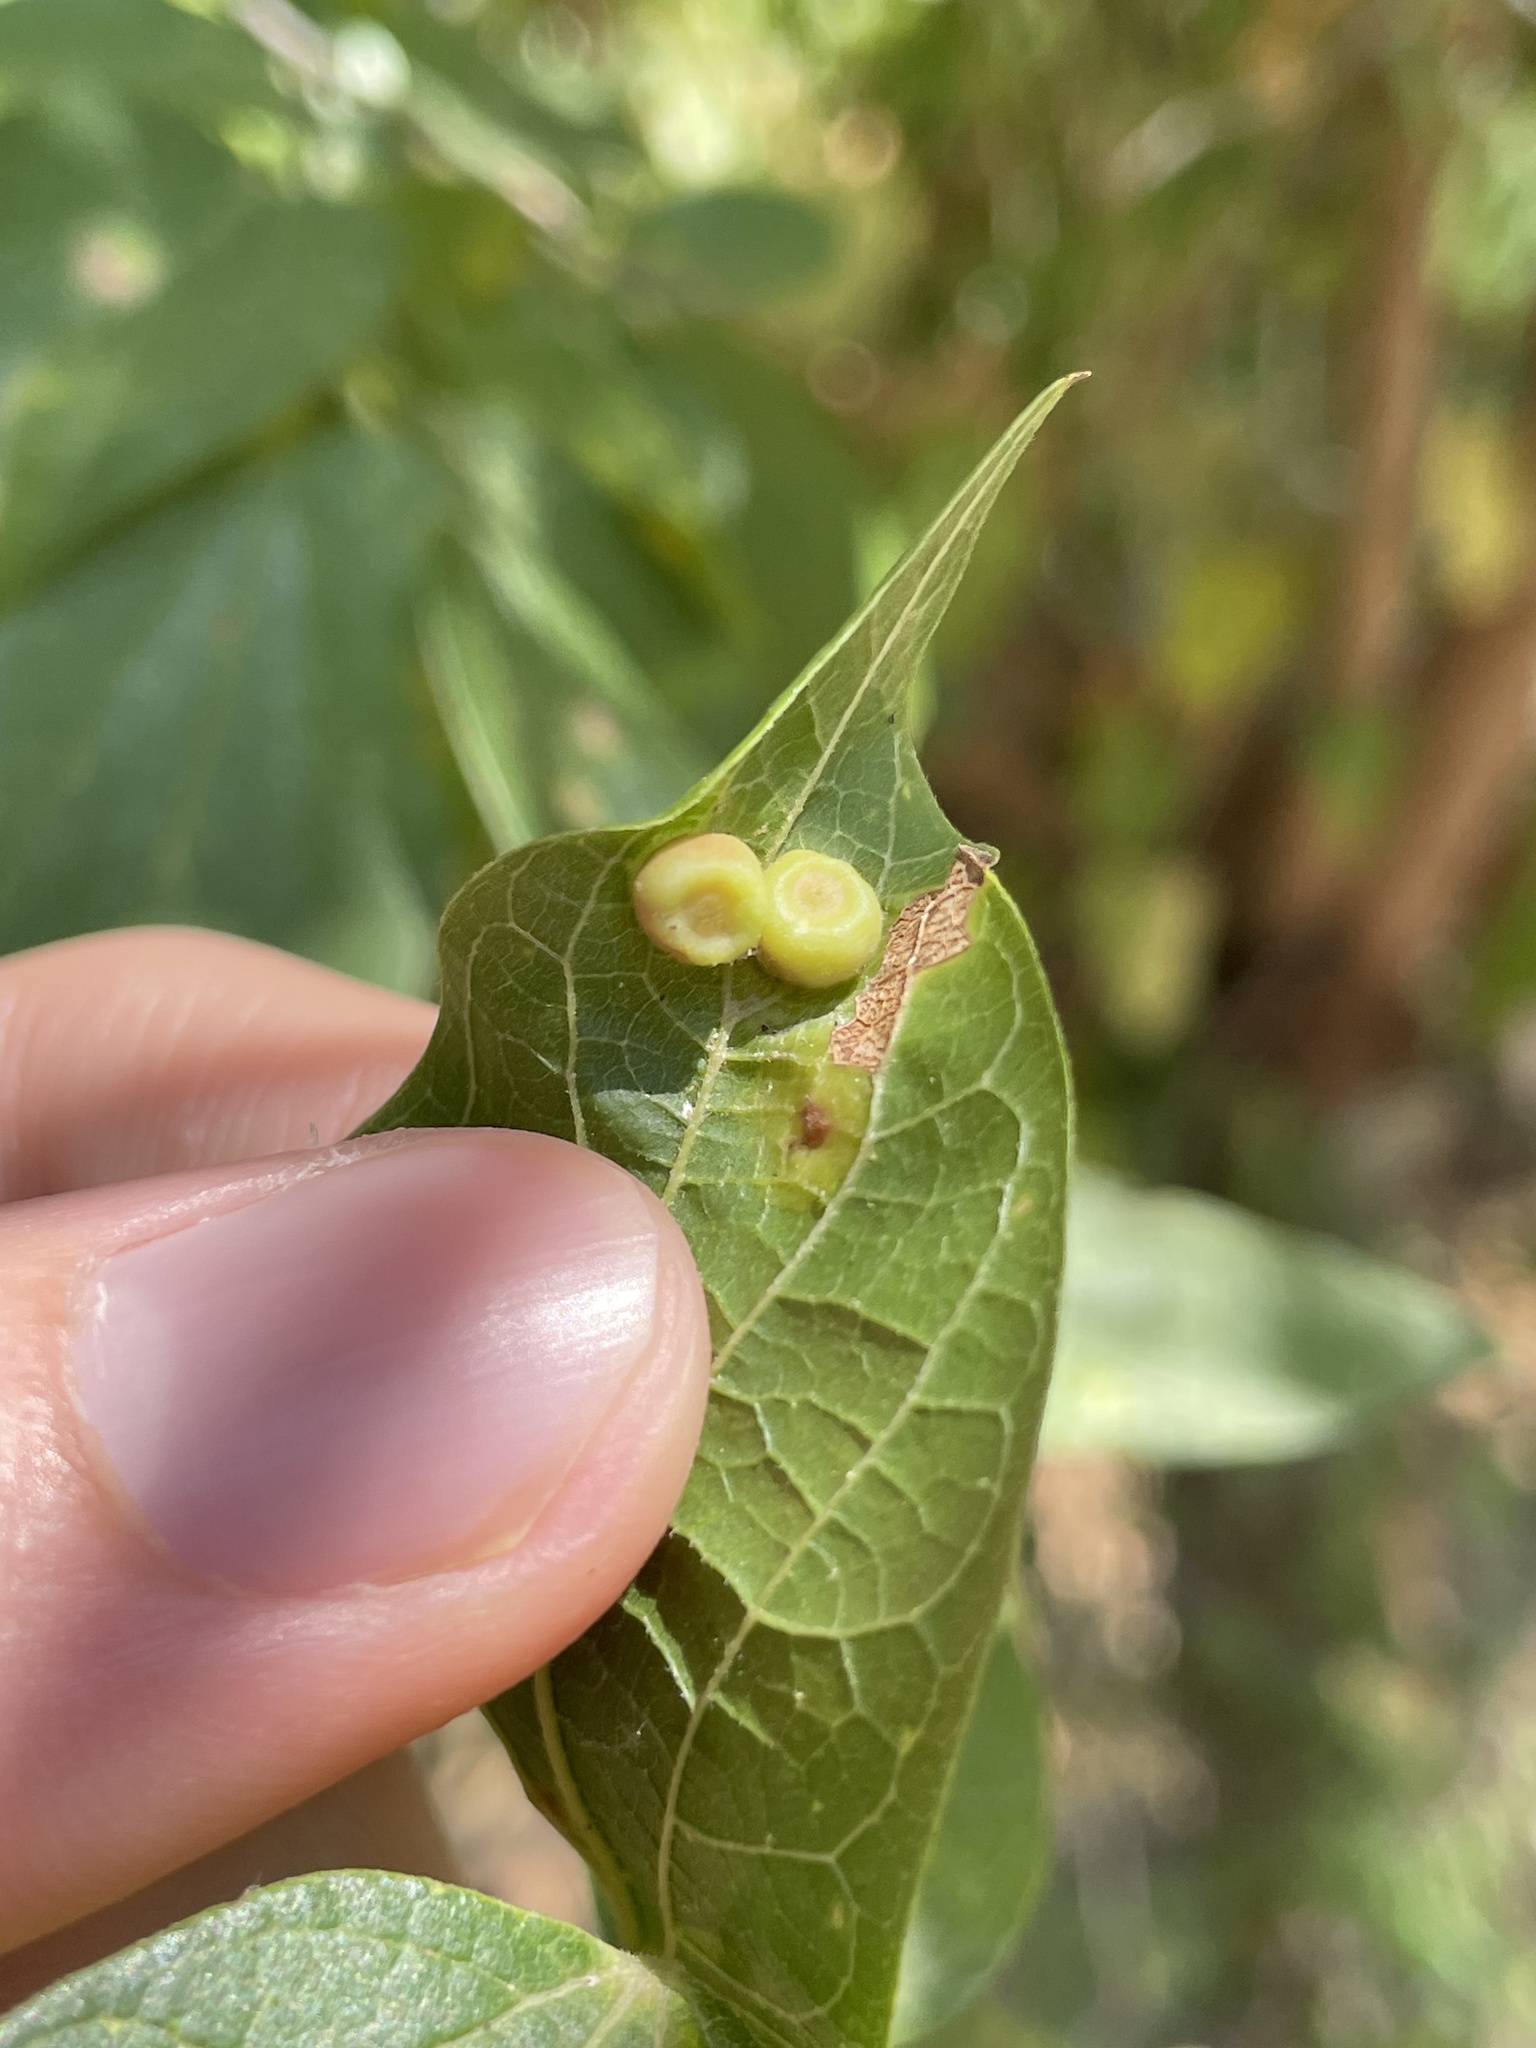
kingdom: Animalia
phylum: Arthropoda
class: Insecta
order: Hemiptera
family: Aphalaridae
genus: Pachypsylla
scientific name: Pachypsylla celtidismamma
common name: Hackberry nipplegall psyllid
